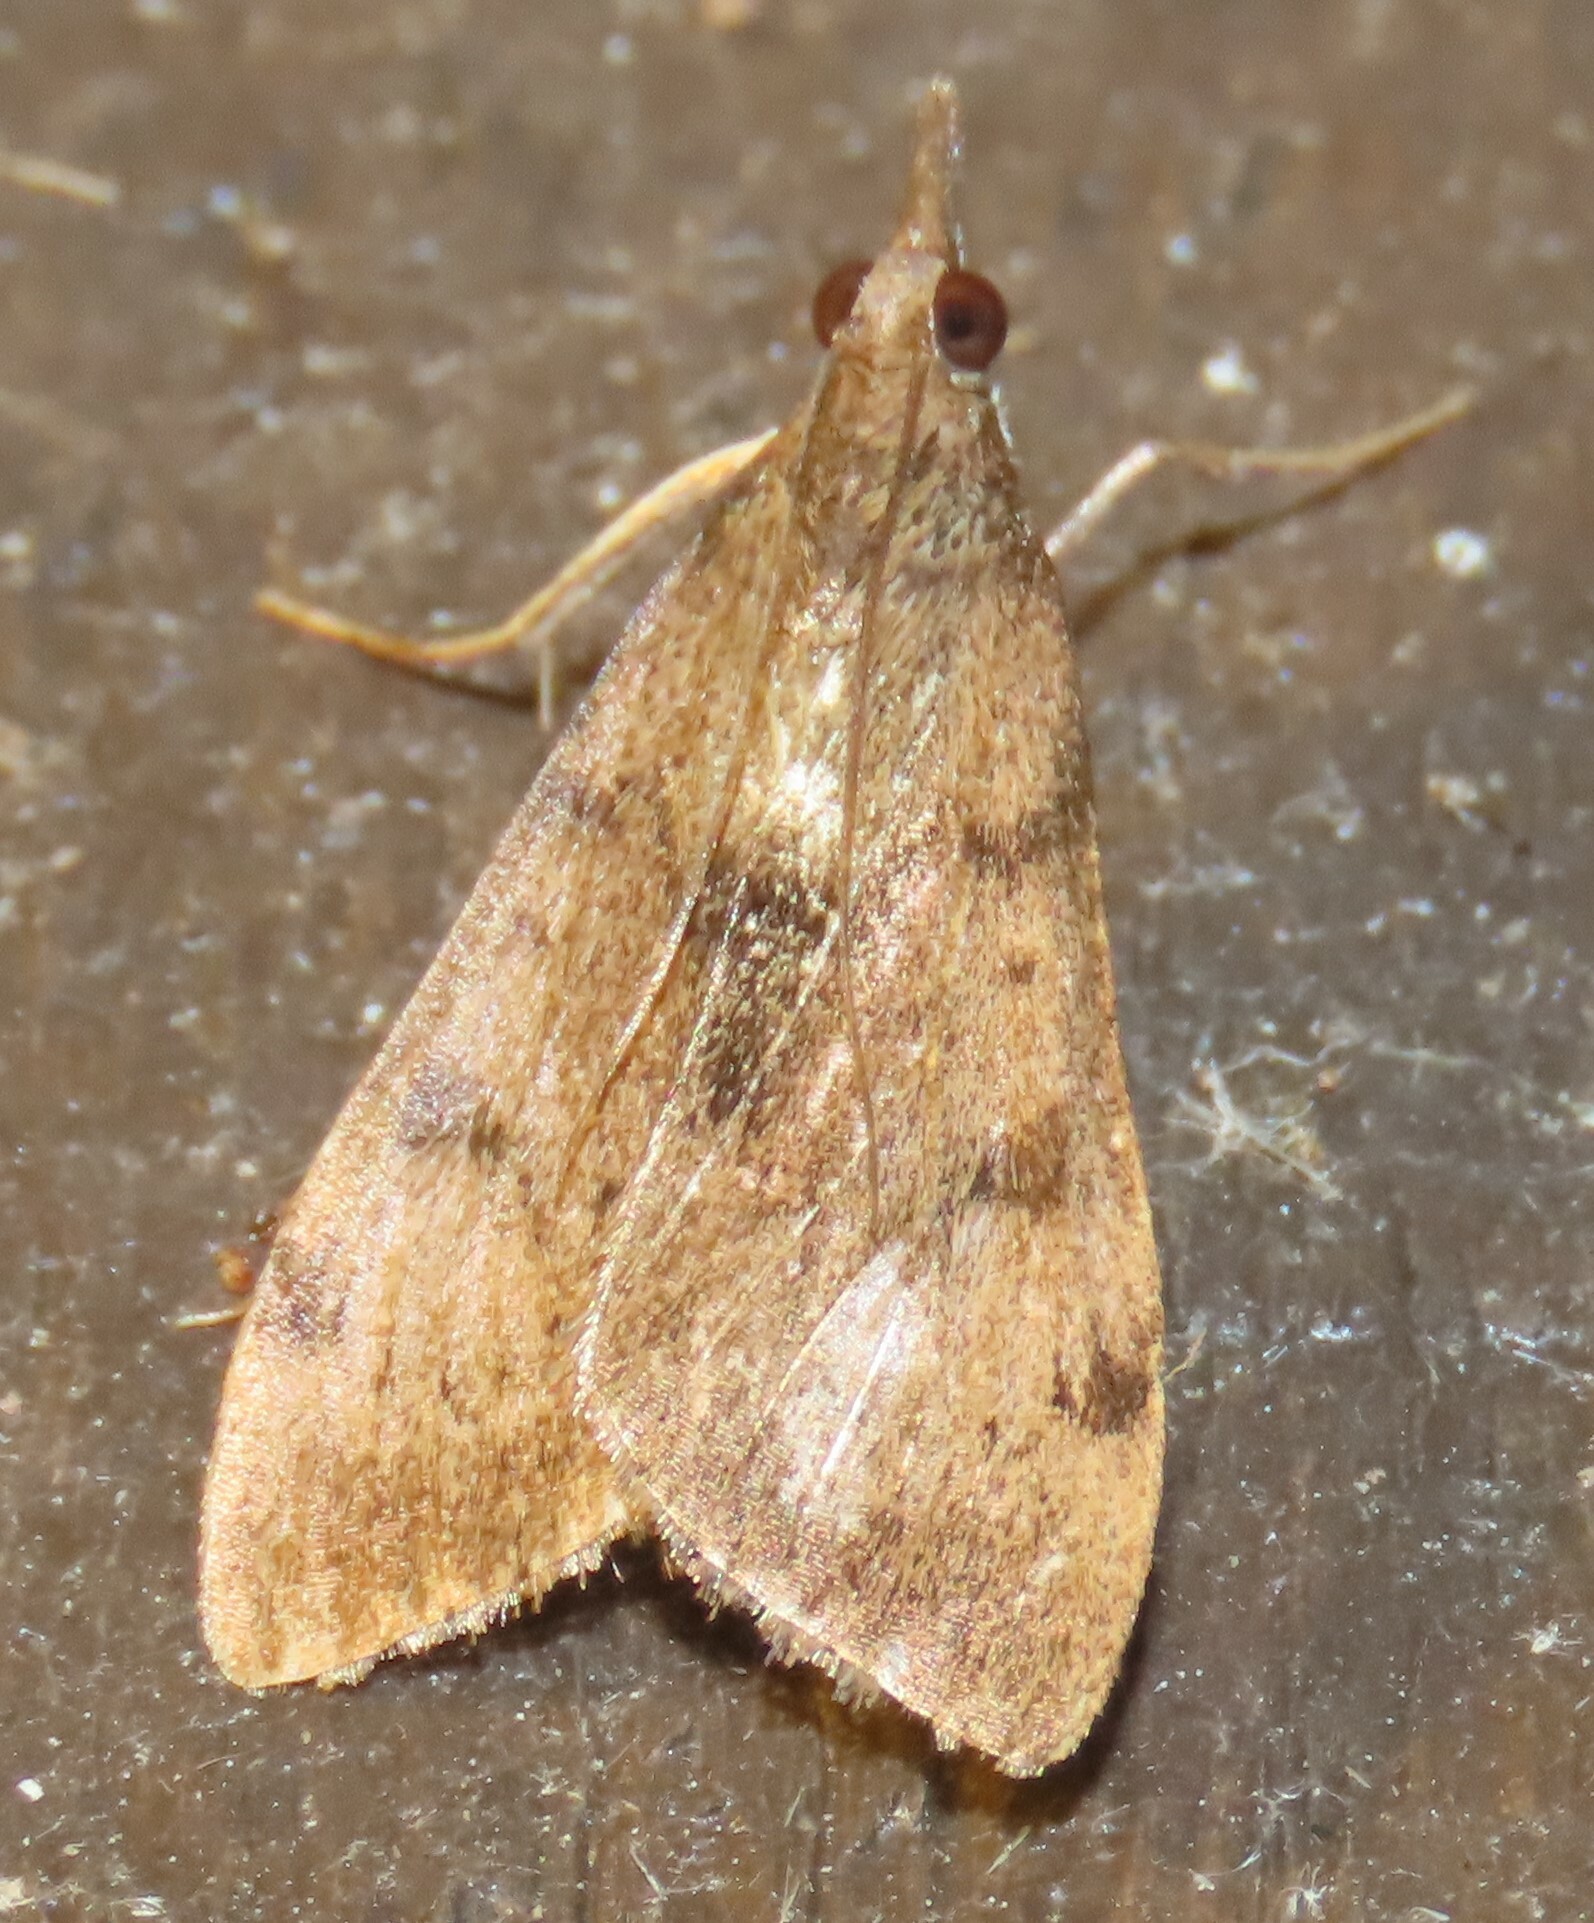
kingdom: Animalia
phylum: Arthropoda
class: Insecta
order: Lepidoptera
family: Crambidae
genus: Uresiphita
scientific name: Uresiphita
